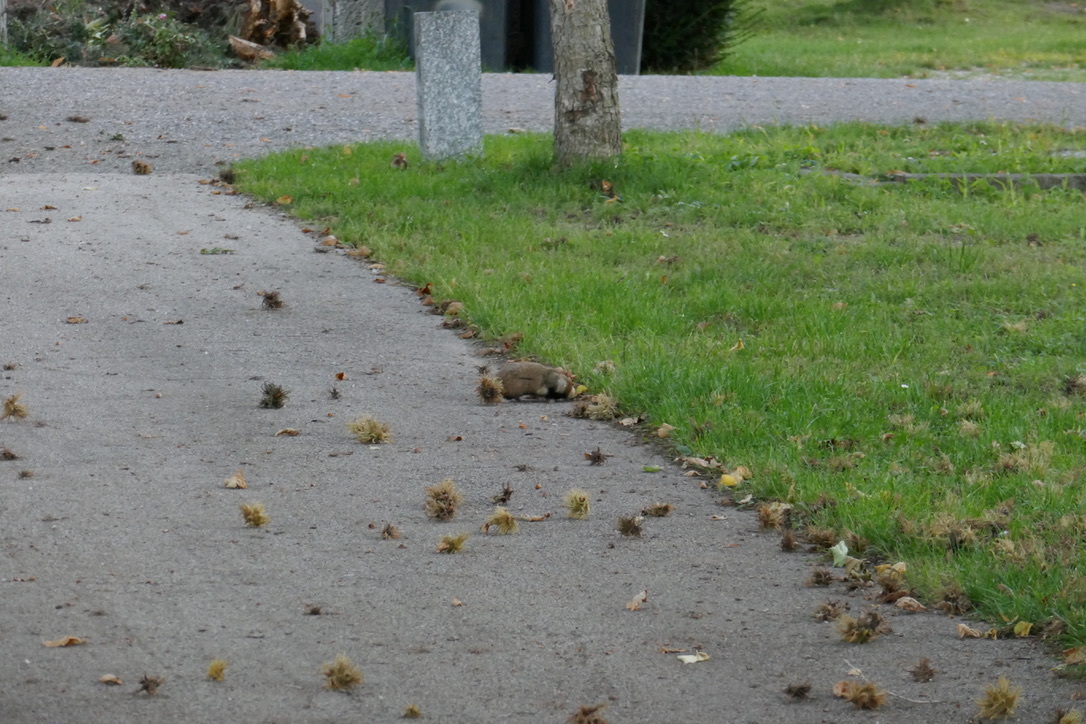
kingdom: Animalia
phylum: Chordata
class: Mammalia
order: Rodentia
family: Cricetidae
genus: Cricetus
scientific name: Cricetus cricetus
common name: Common hamster
